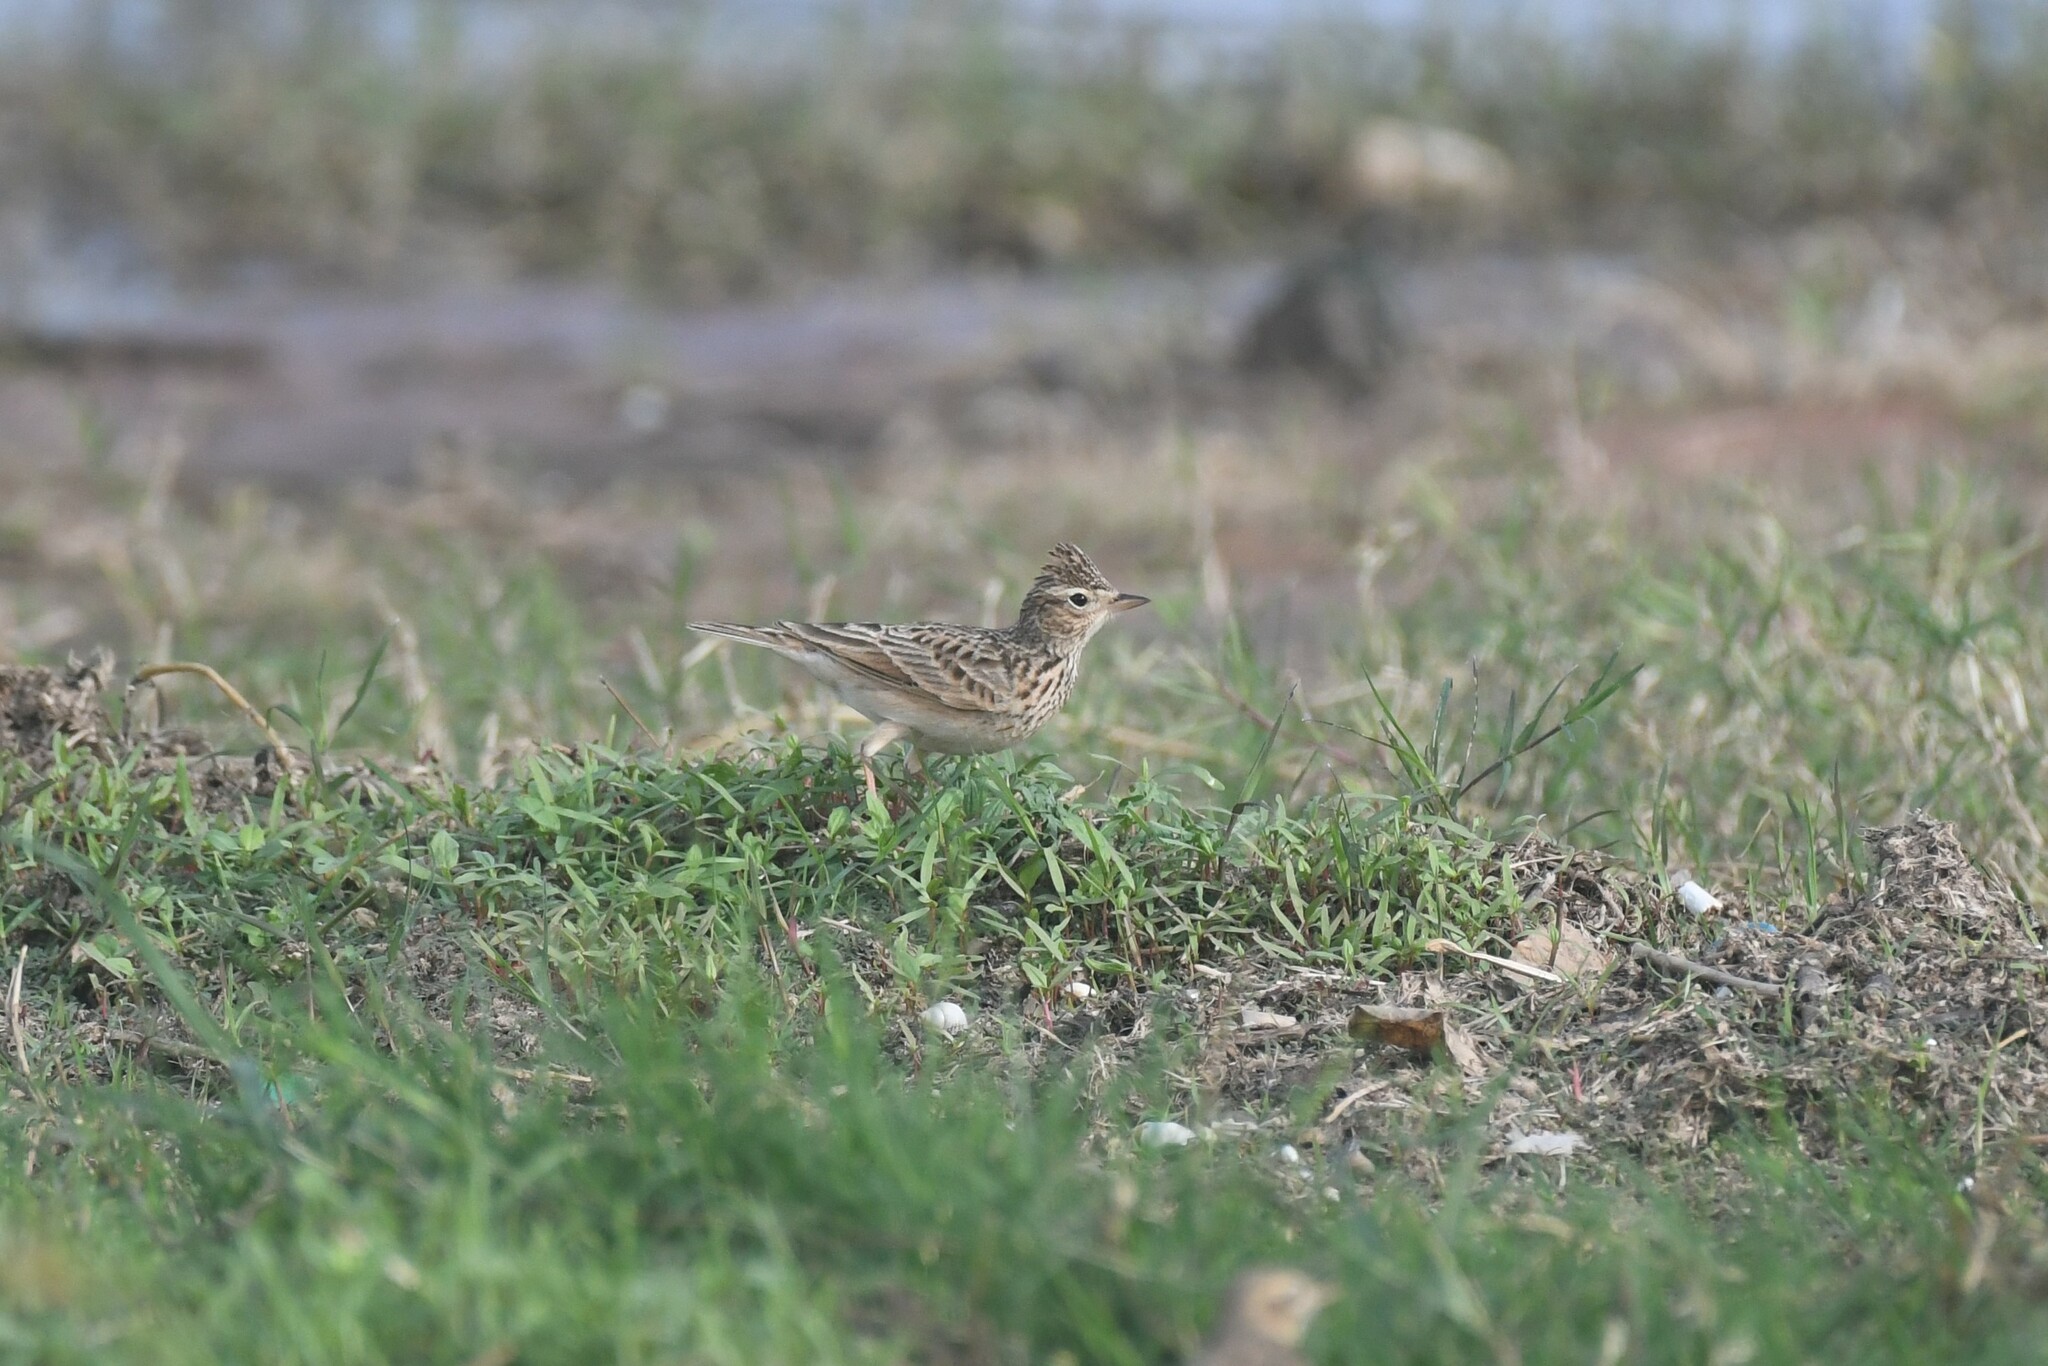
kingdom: Animalia
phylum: Chordata
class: Aves
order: Passeriformes
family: Alaudidae
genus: Alauda
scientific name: Alauda gulgula
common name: Oriental skylark
